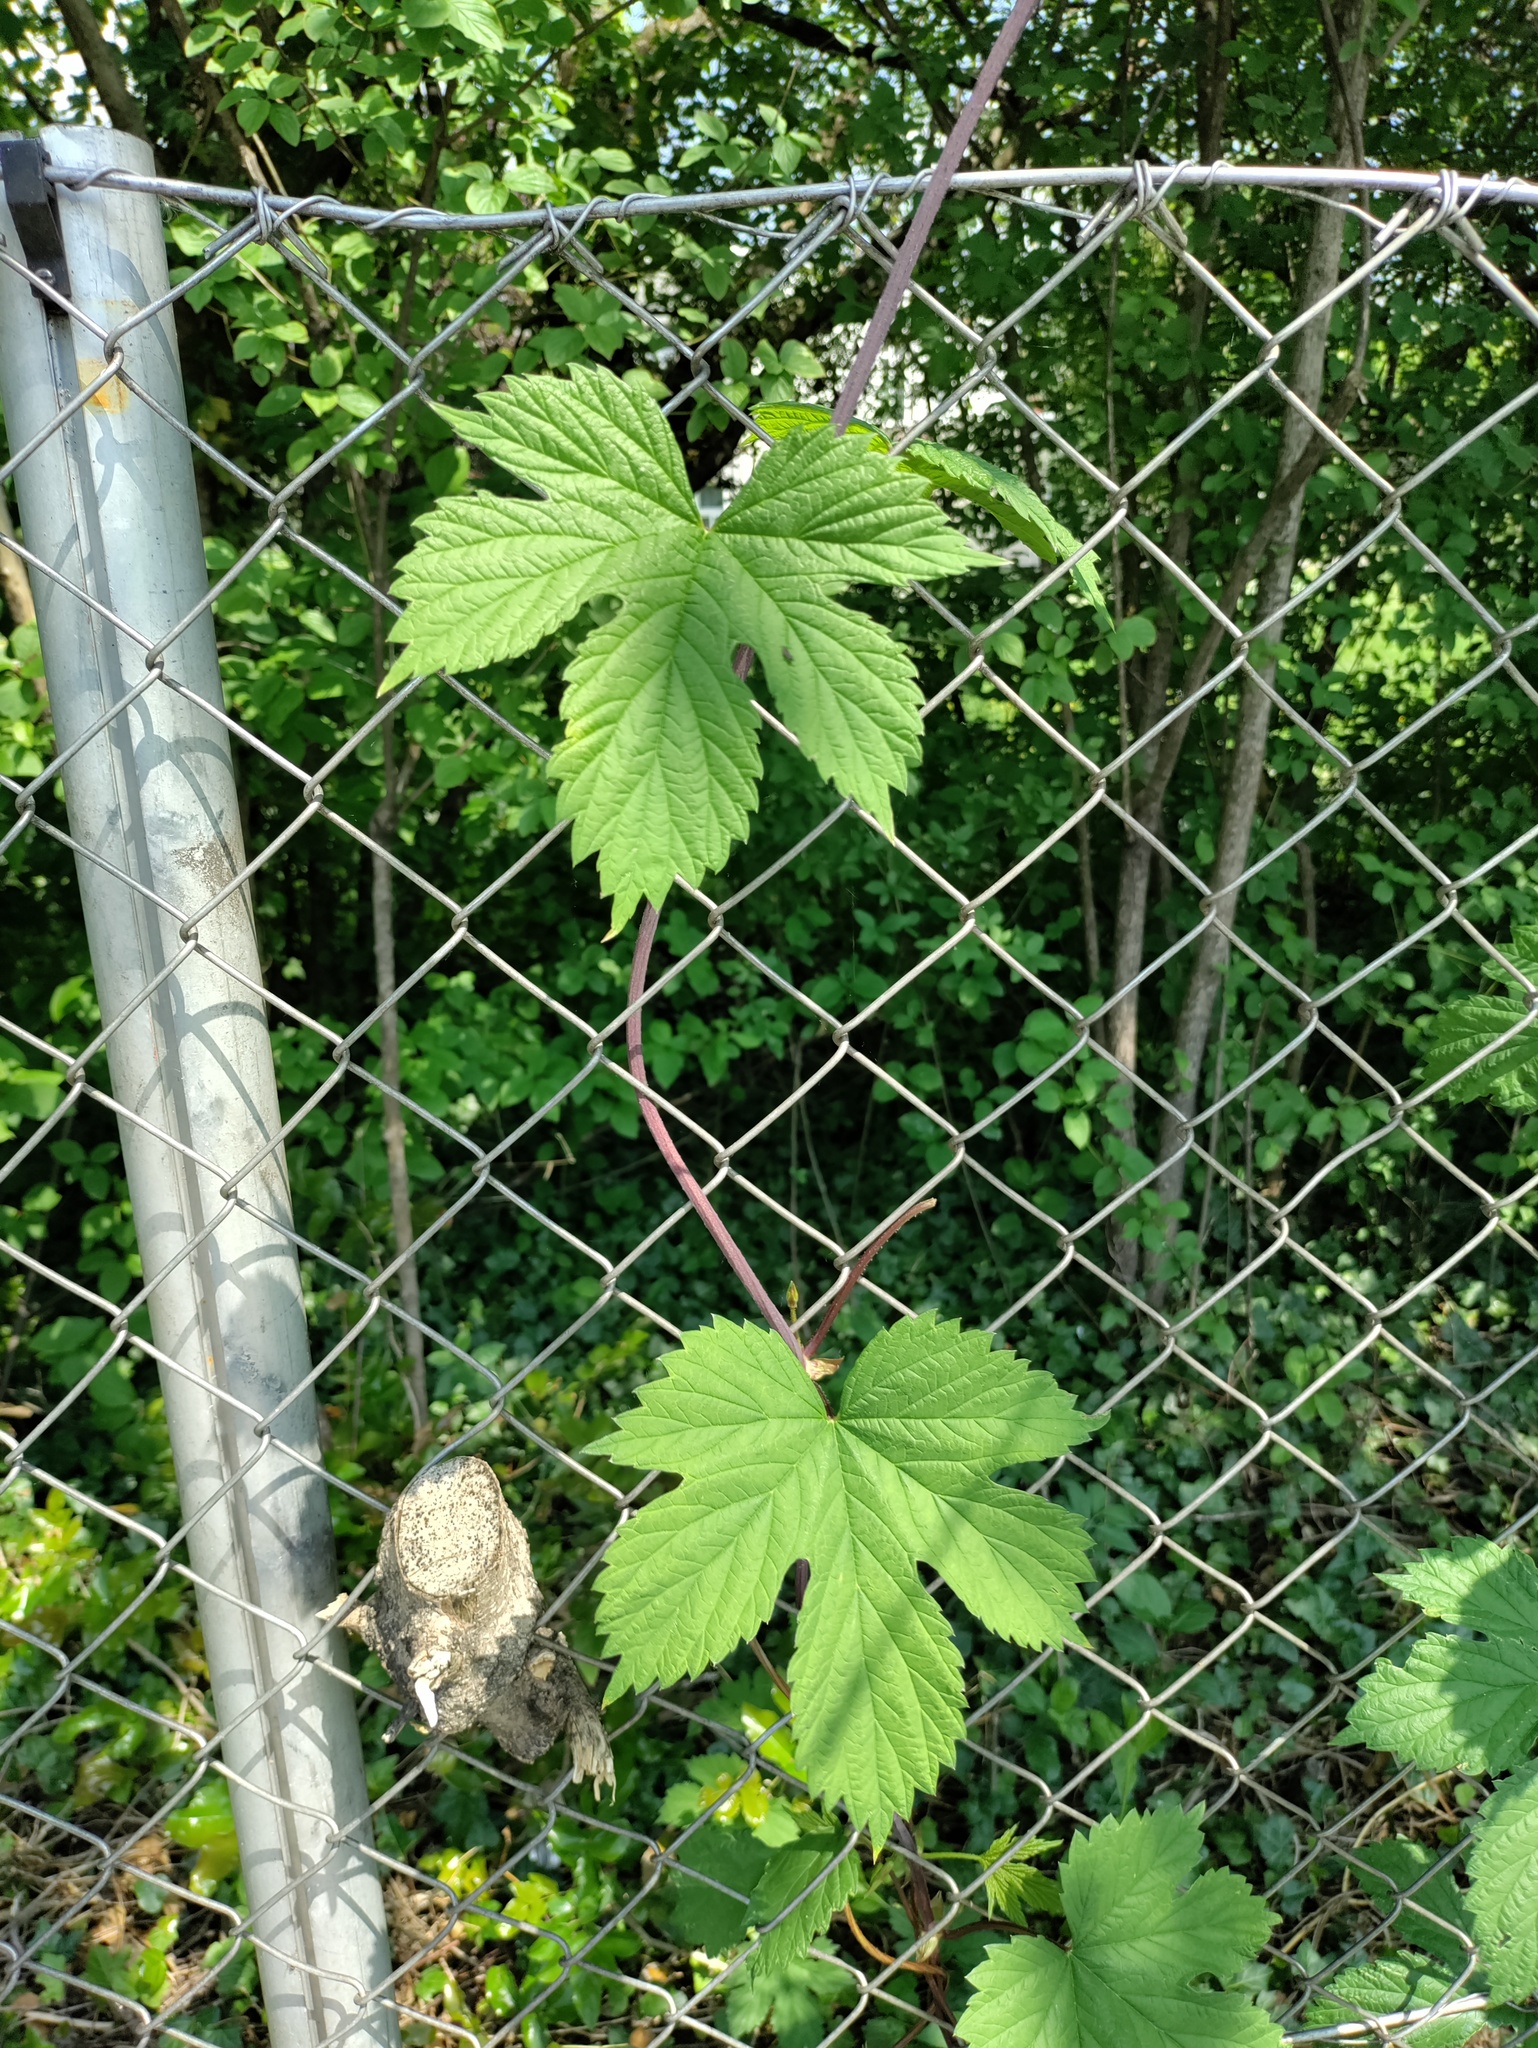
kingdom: Plantae
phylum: Tracheophyta
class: Magnoliopsida
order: Rosales
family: Cannabaceae
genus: Humulus
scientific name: Humulus lupulus
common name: Hop
